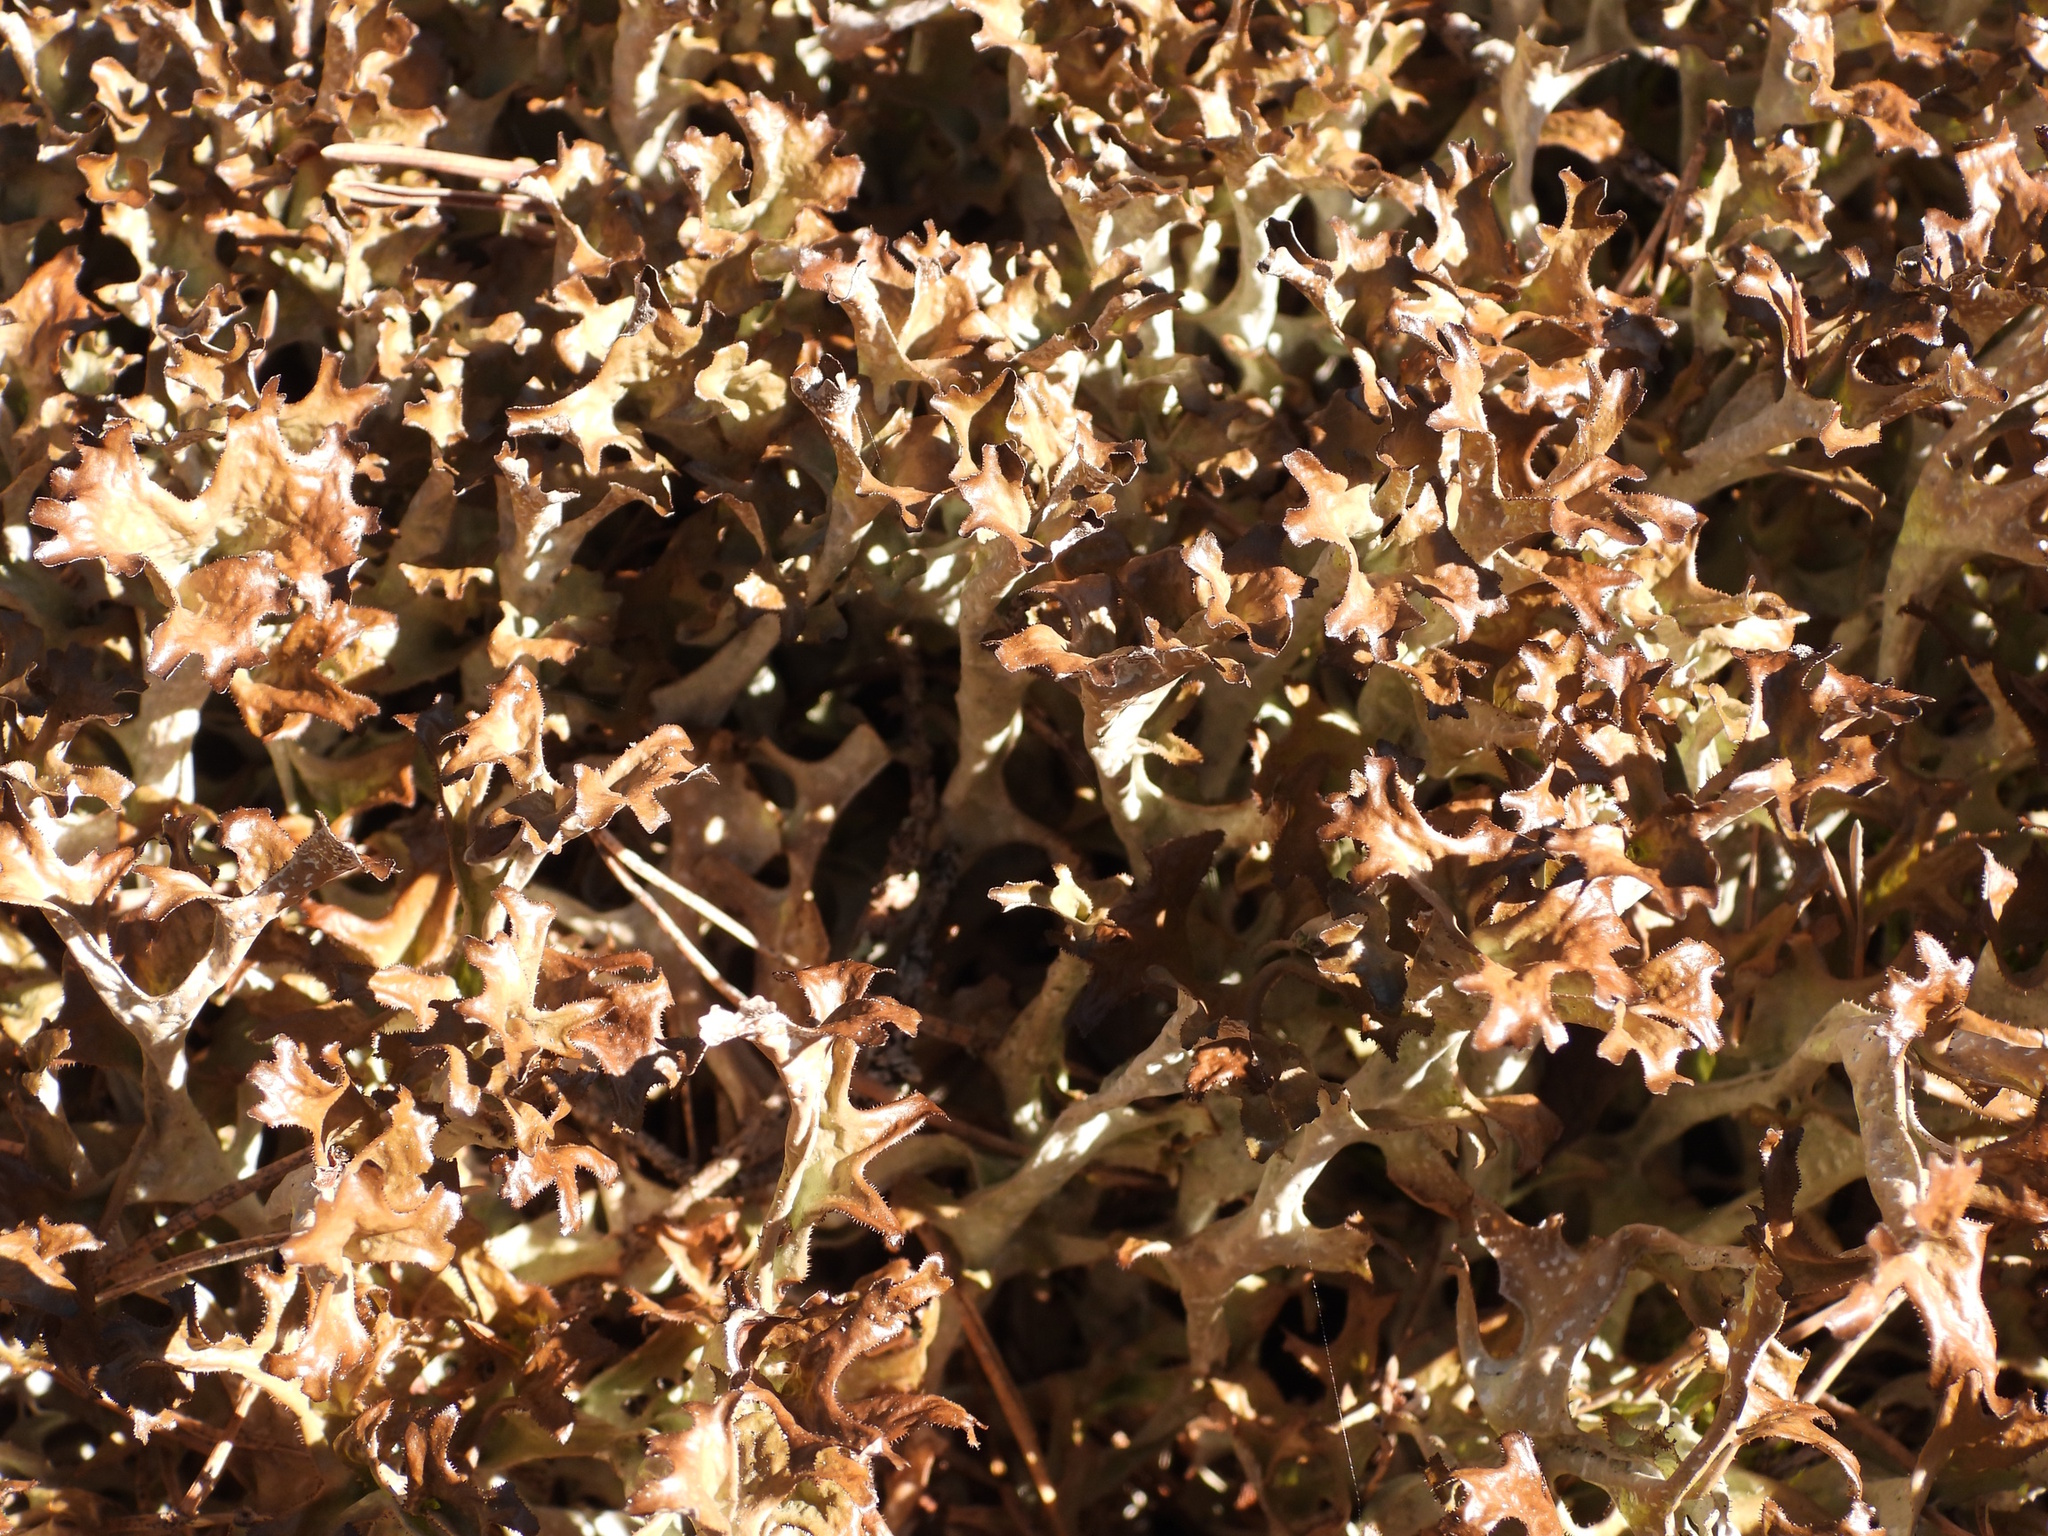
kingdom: Fungi
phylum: Ascomycota
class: Lecanoromycetes
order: Lecanorales
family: Parmeliaceae
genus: Cetraria
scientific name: Cetraria islandica
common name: Iceland lichen
